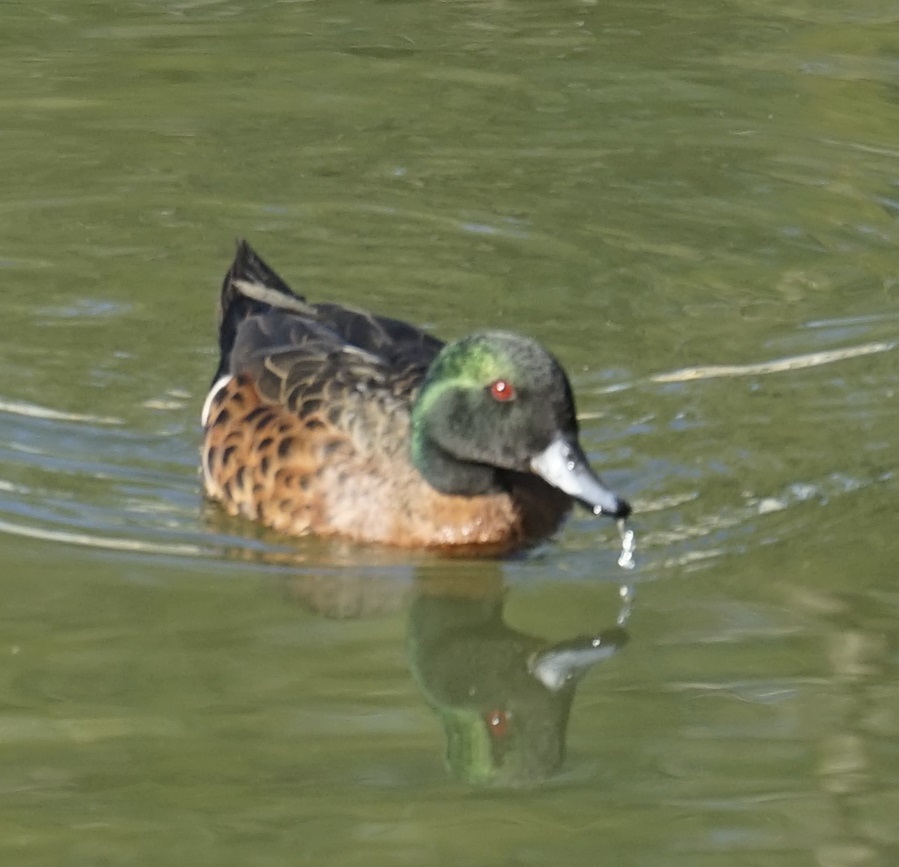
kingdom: Animalia
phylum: Chordata
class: Aves
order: Anseriformes
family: Anatidae
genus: Anas
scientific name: Anas castanea
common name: Chestnut teal
